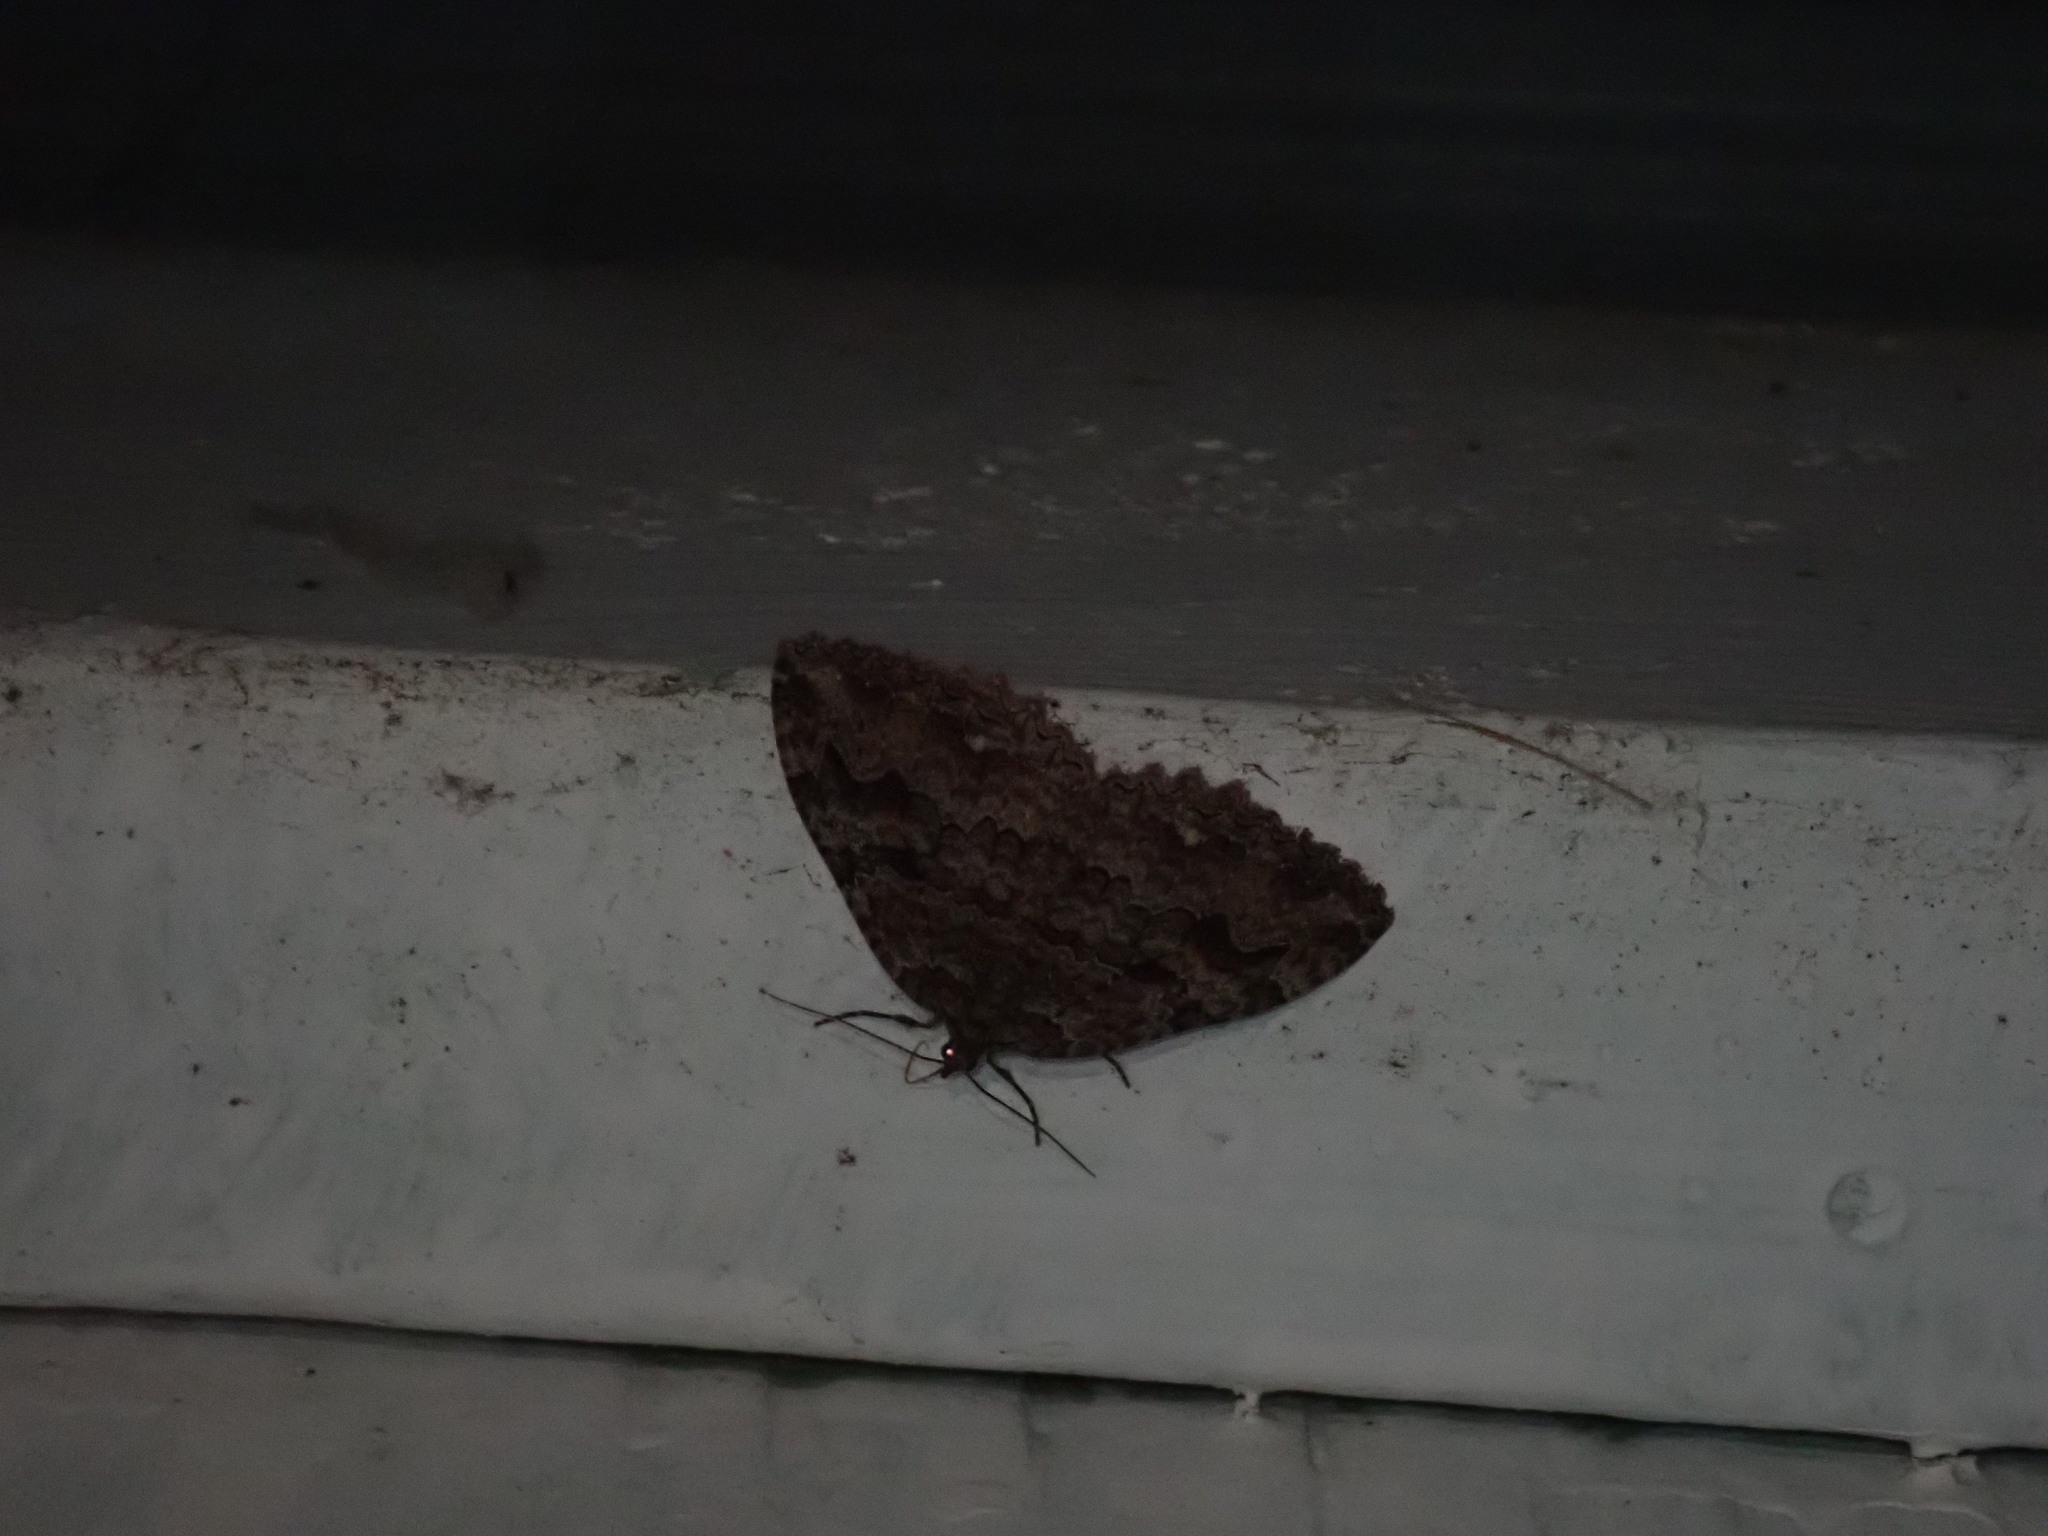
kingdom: Animalia
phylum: Arthropoda
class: Insecta
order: Lepidoptera
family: Geometridae
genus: Triphosa
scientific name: Triphosa haesitata
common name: Tissue moth
